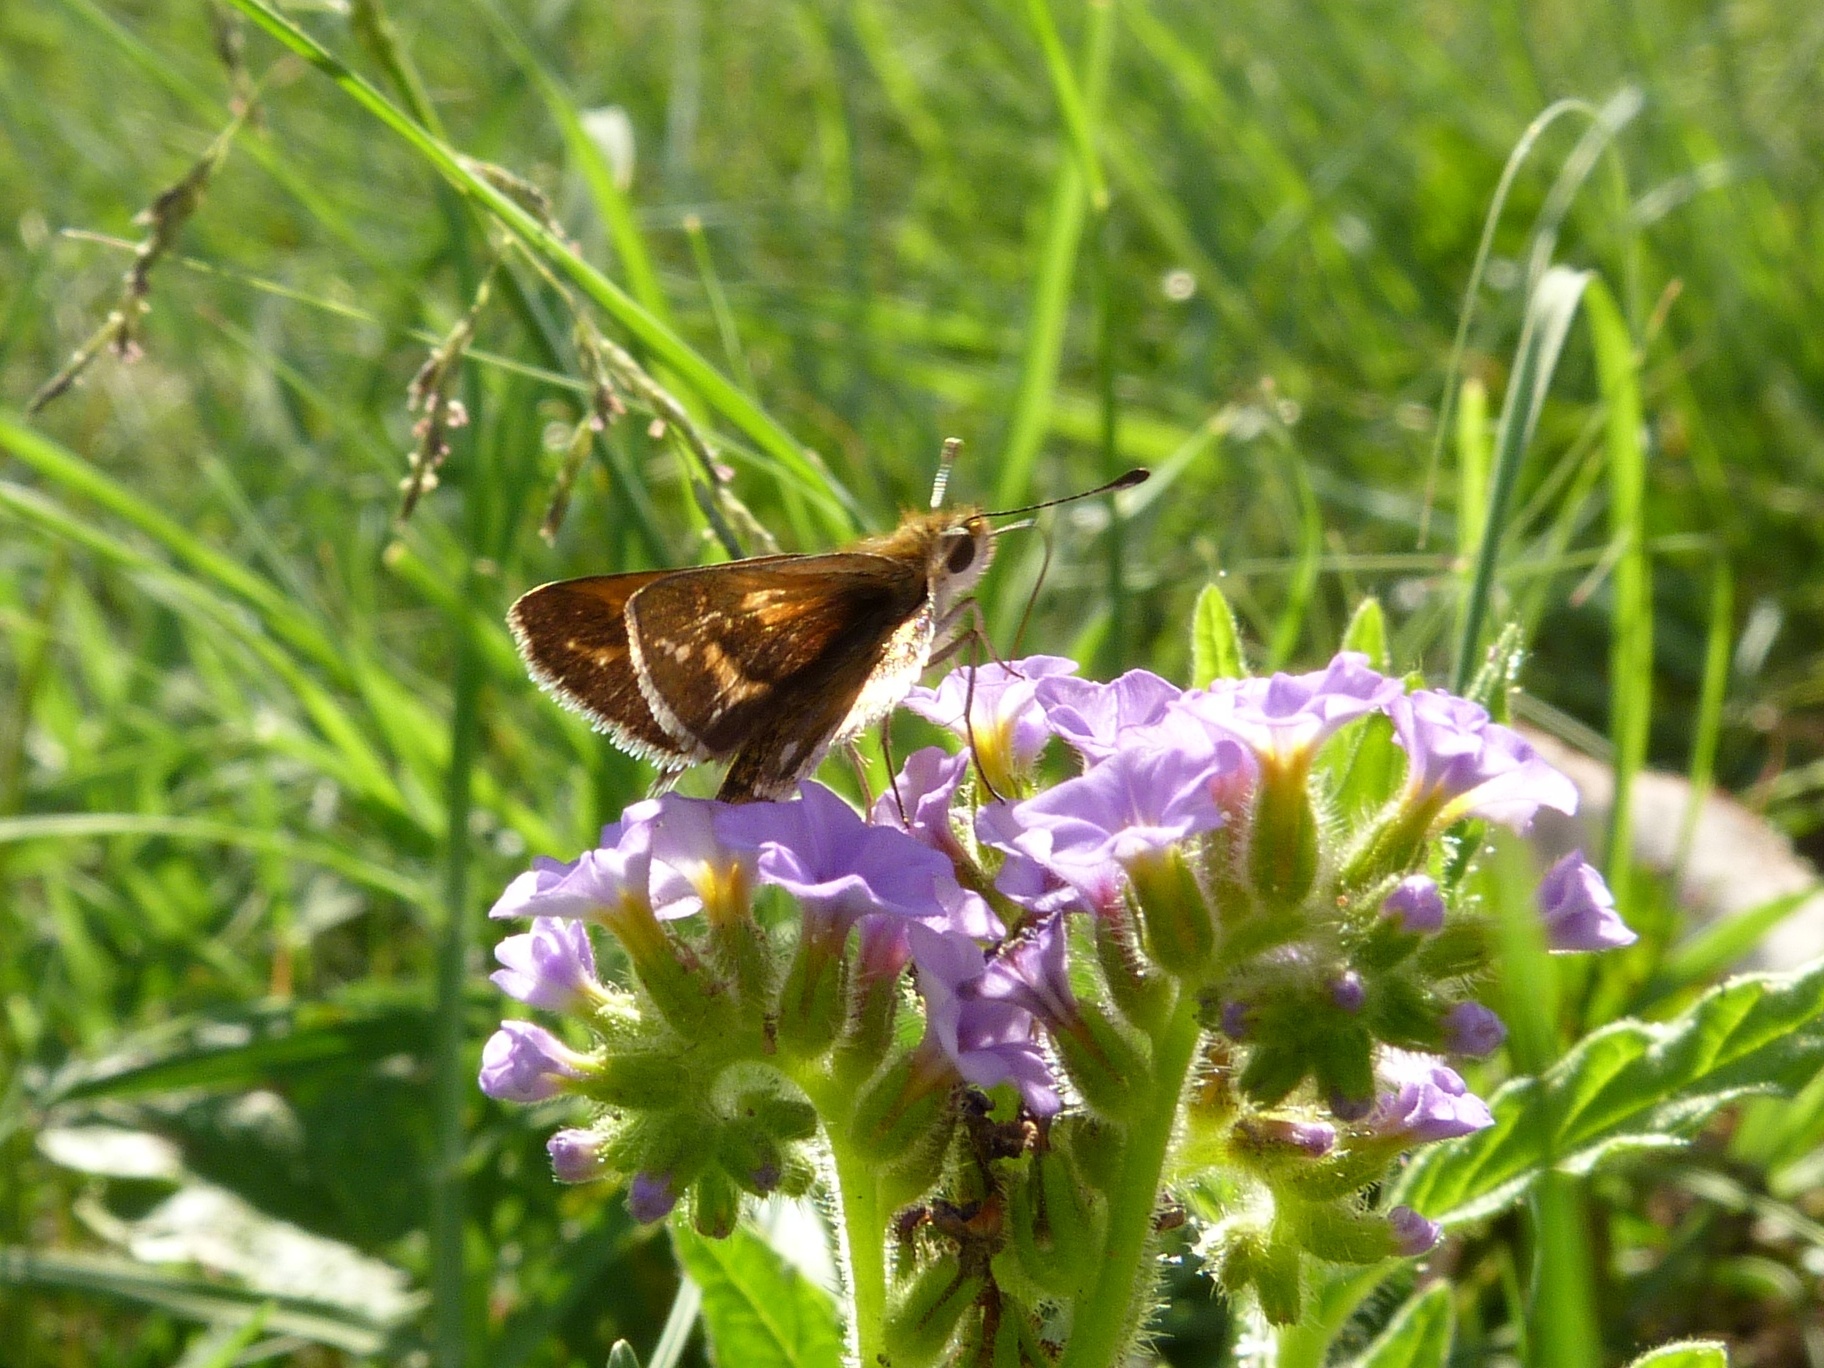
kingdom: Animalia
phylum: Arthropoda
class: Insecta
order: Lepidoptera
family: Hesperiidae
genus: Taractrocera
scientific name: Taractrocera papyria
